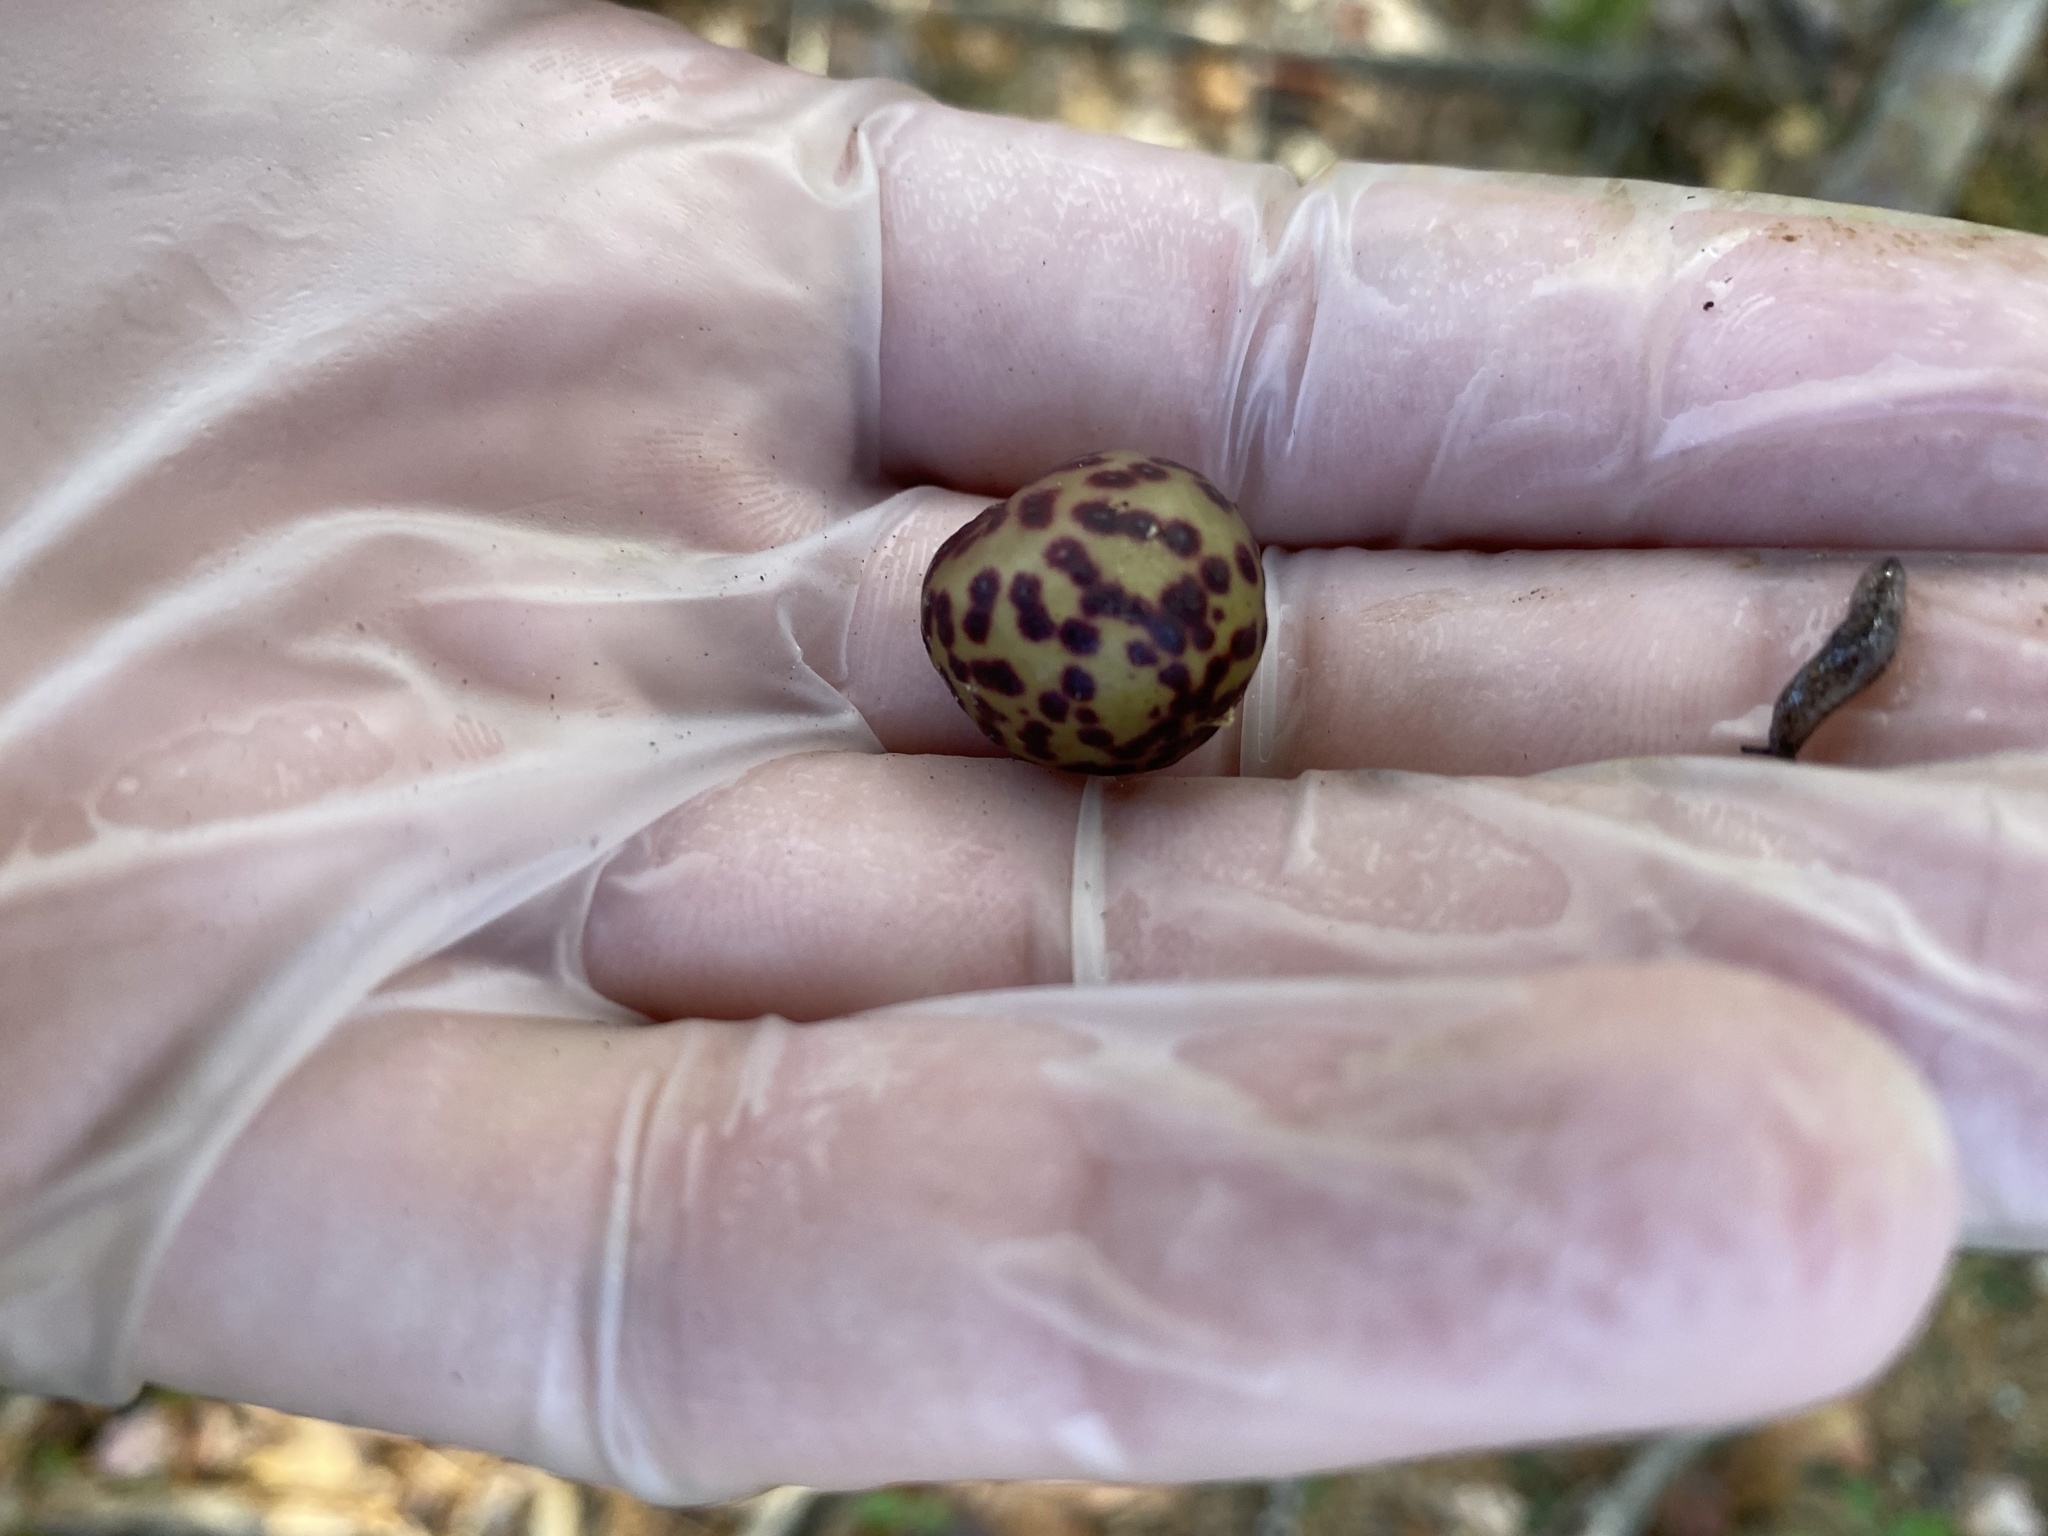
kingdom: Animalia
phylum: Arthropoda
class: Insecta
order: Hymenoptera
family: Cynipidae
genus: Amphibolips
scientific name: Amphibolips
